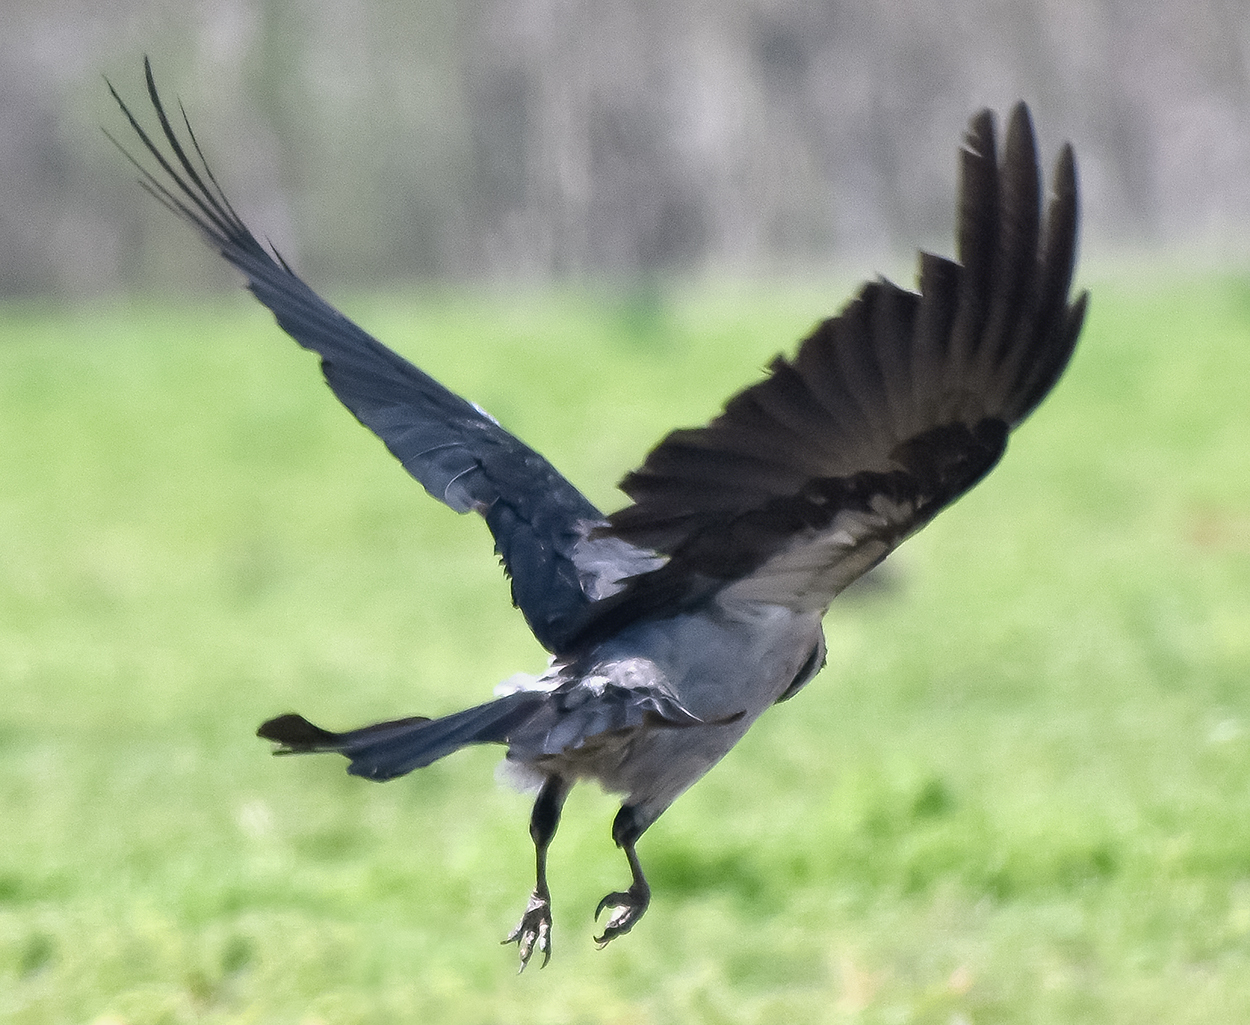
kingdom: Animalia
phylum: Chordata
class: Aves
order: Passeriformes
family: Corvidae
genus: Corvus
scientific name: Corvus cornix
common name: Hooded crow
